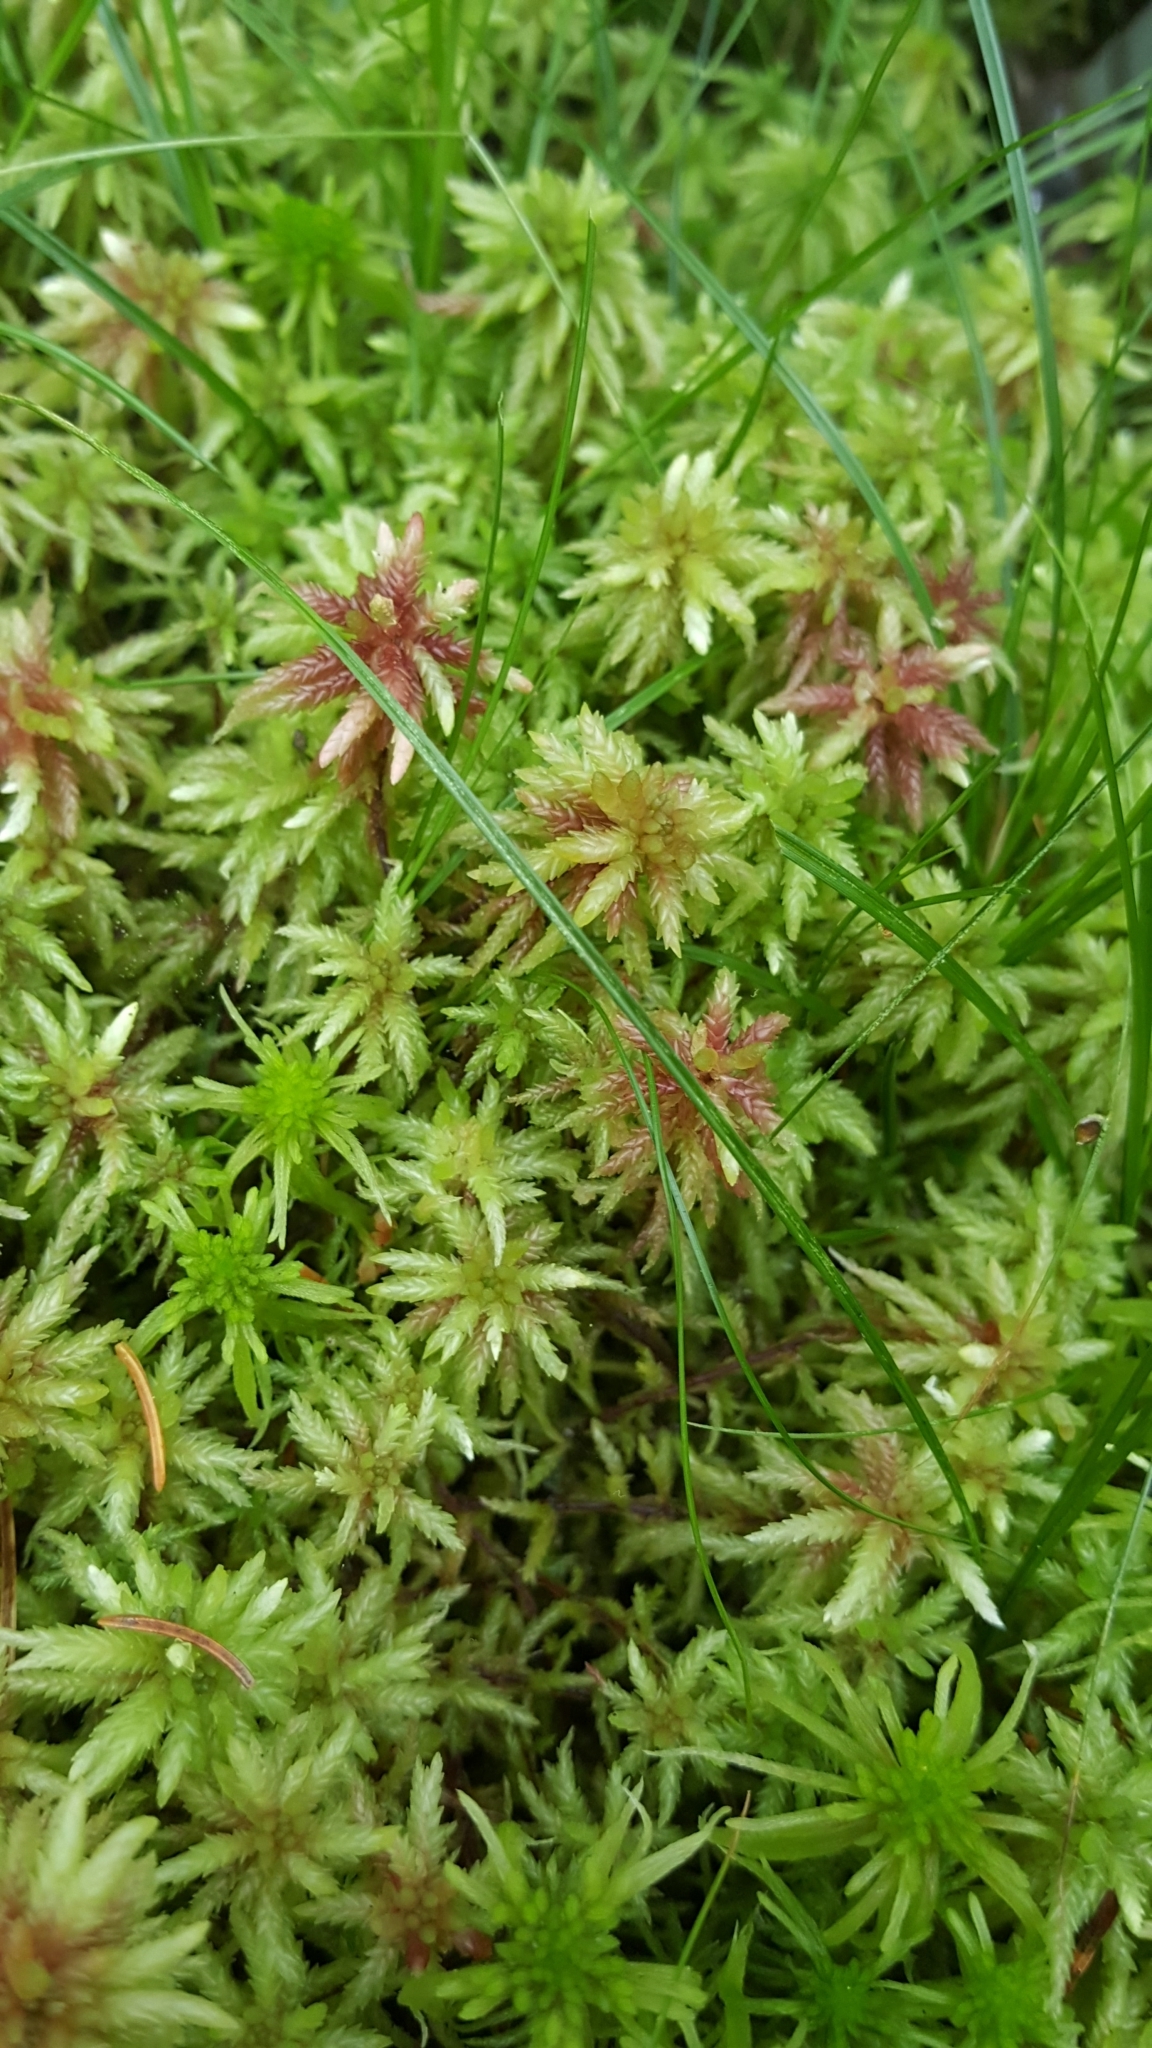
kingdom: Plantae
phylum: Bryophyta
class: Sphagnopsida
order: Sphagnales
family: Sphagnaceae
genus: Sphagnum
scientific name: Sphagnum magellanicum
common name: Magellan's peat moss
